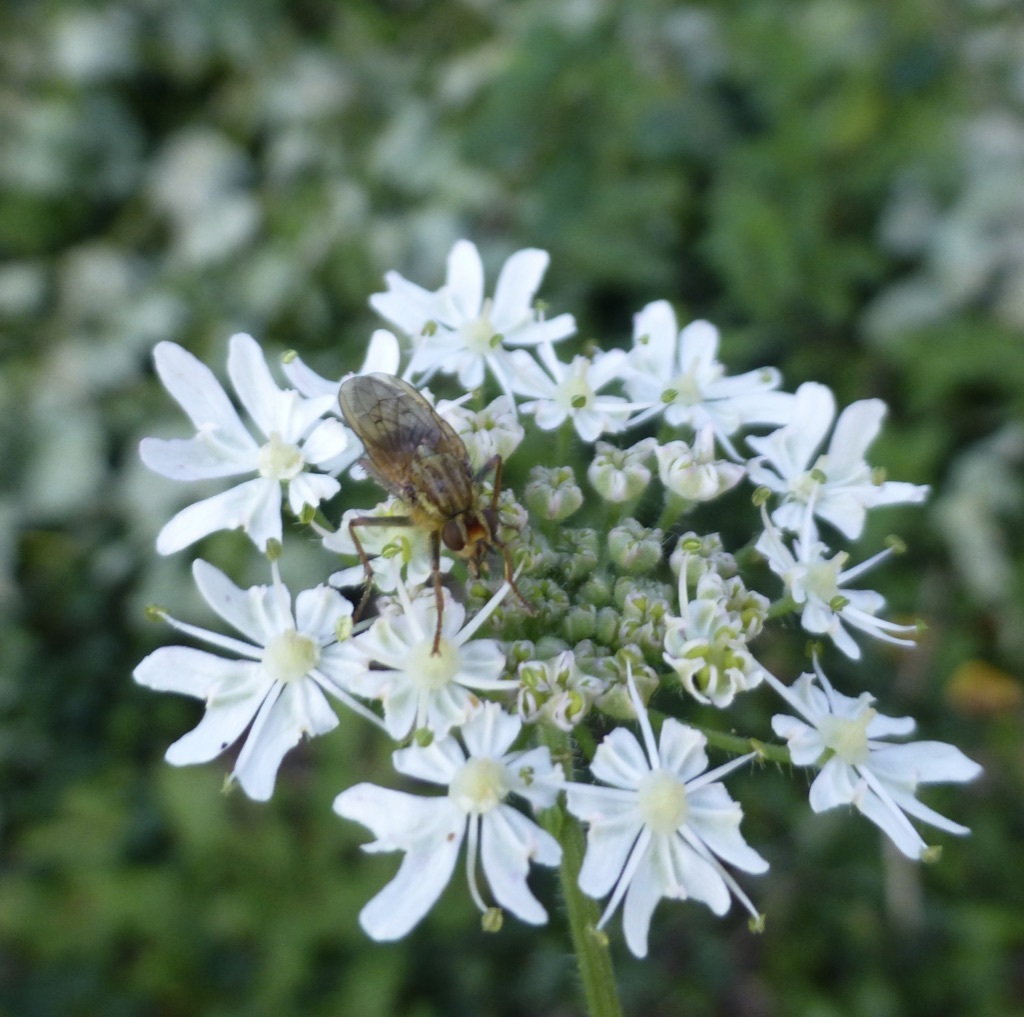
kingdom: Animalia
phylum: Arthropoda
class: Insecta
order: Diptera
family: Scathophagidae
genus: Scathophaga
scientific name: Scathophaga stercoraria
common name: Yellow dung fly
